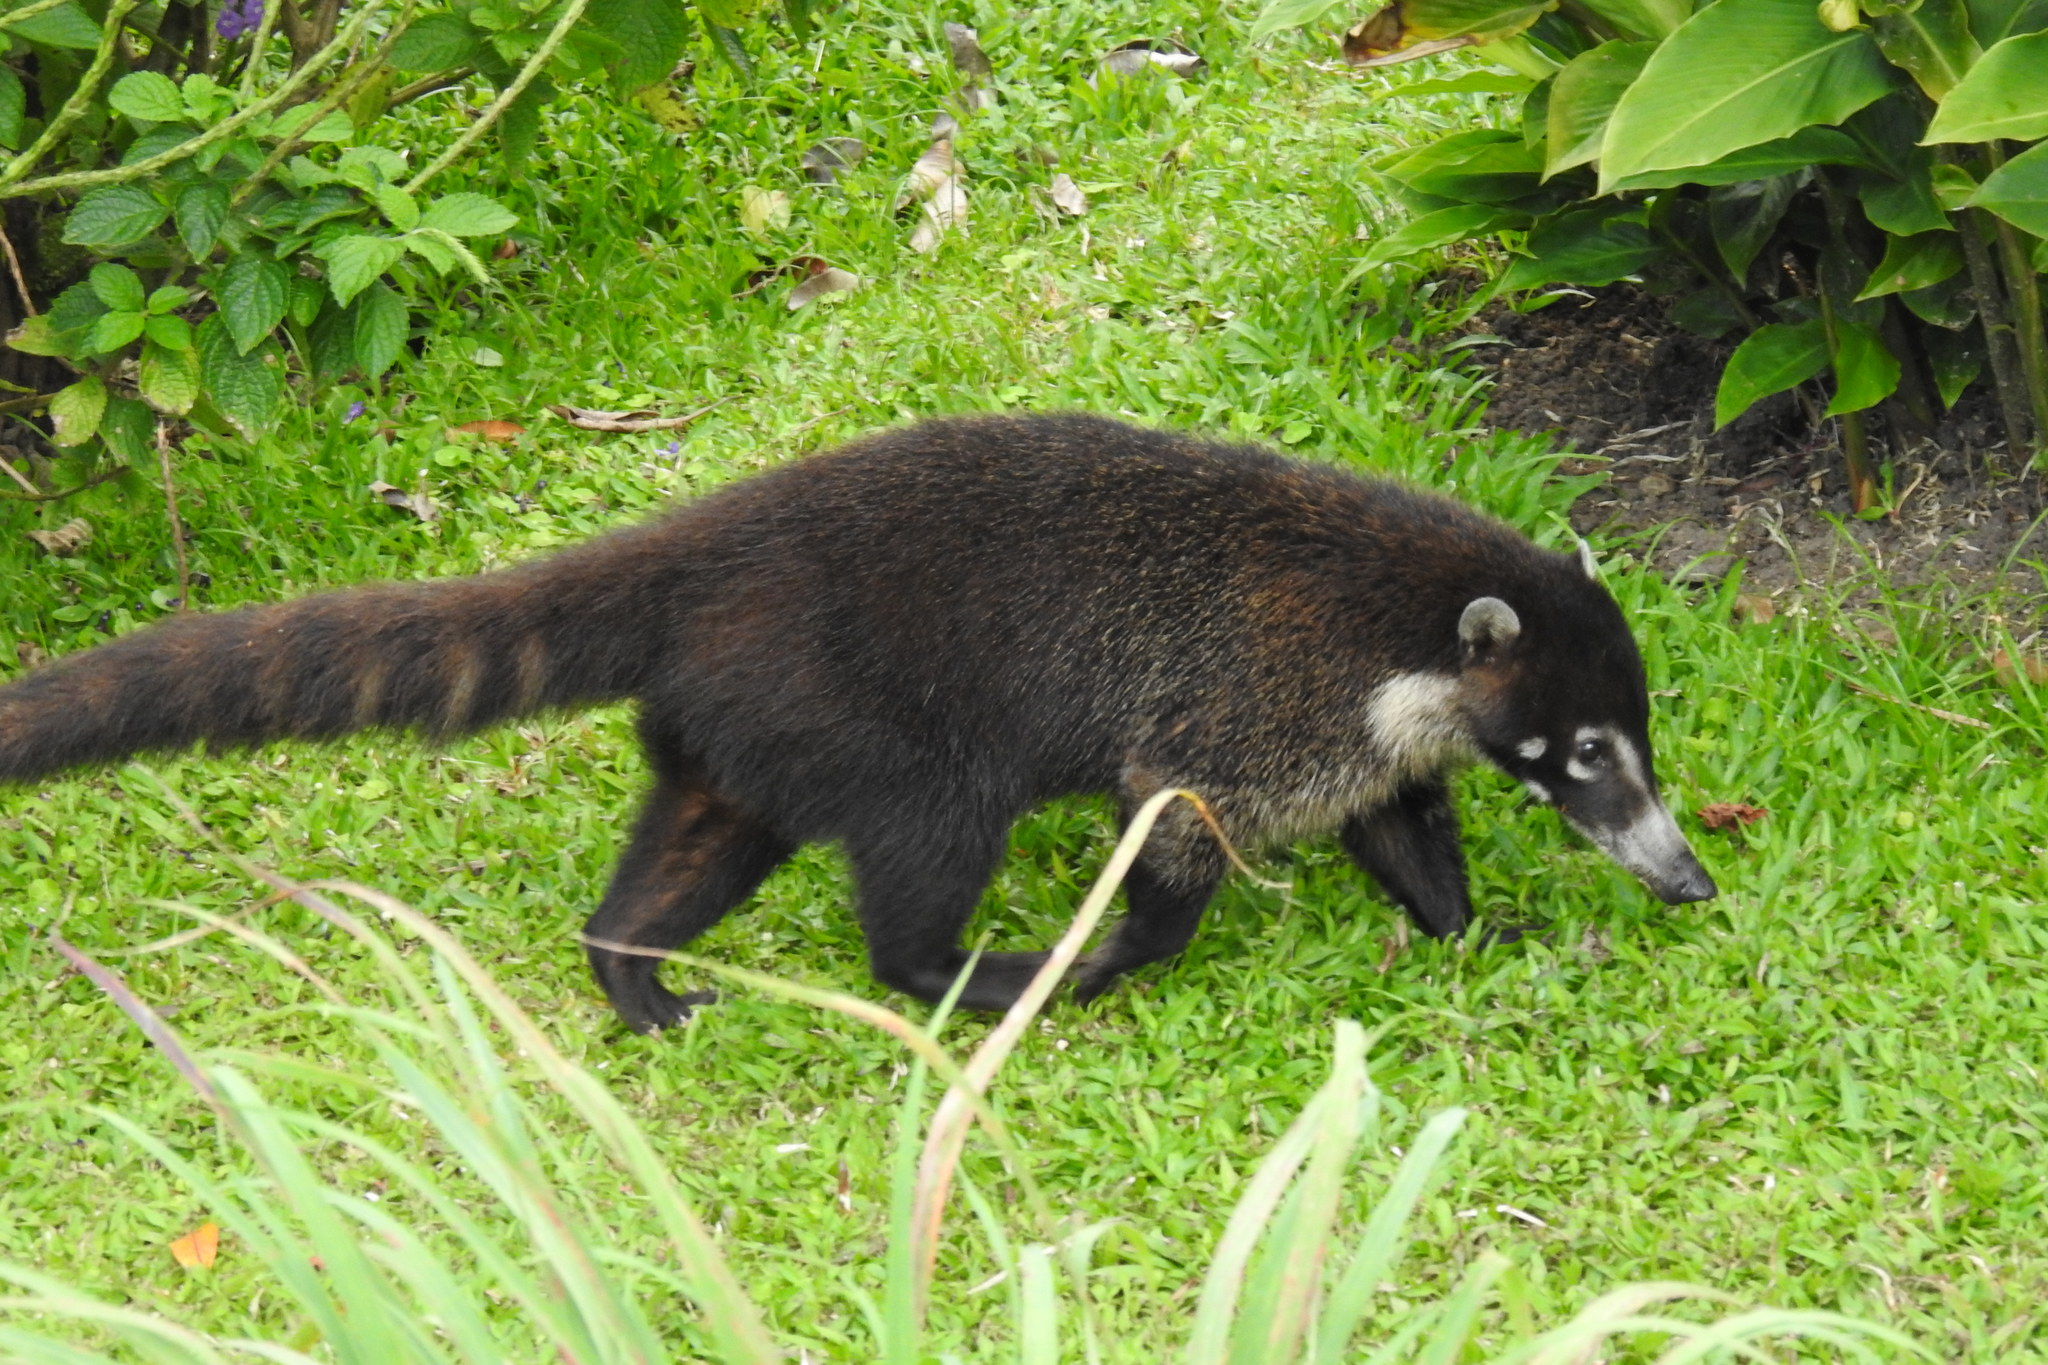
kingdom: Animalia
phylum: Chordata
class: Mammalia
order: Carnivora
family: Procyonidae
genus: Nasua
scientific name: Nasua narica
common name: White-nosed coati
